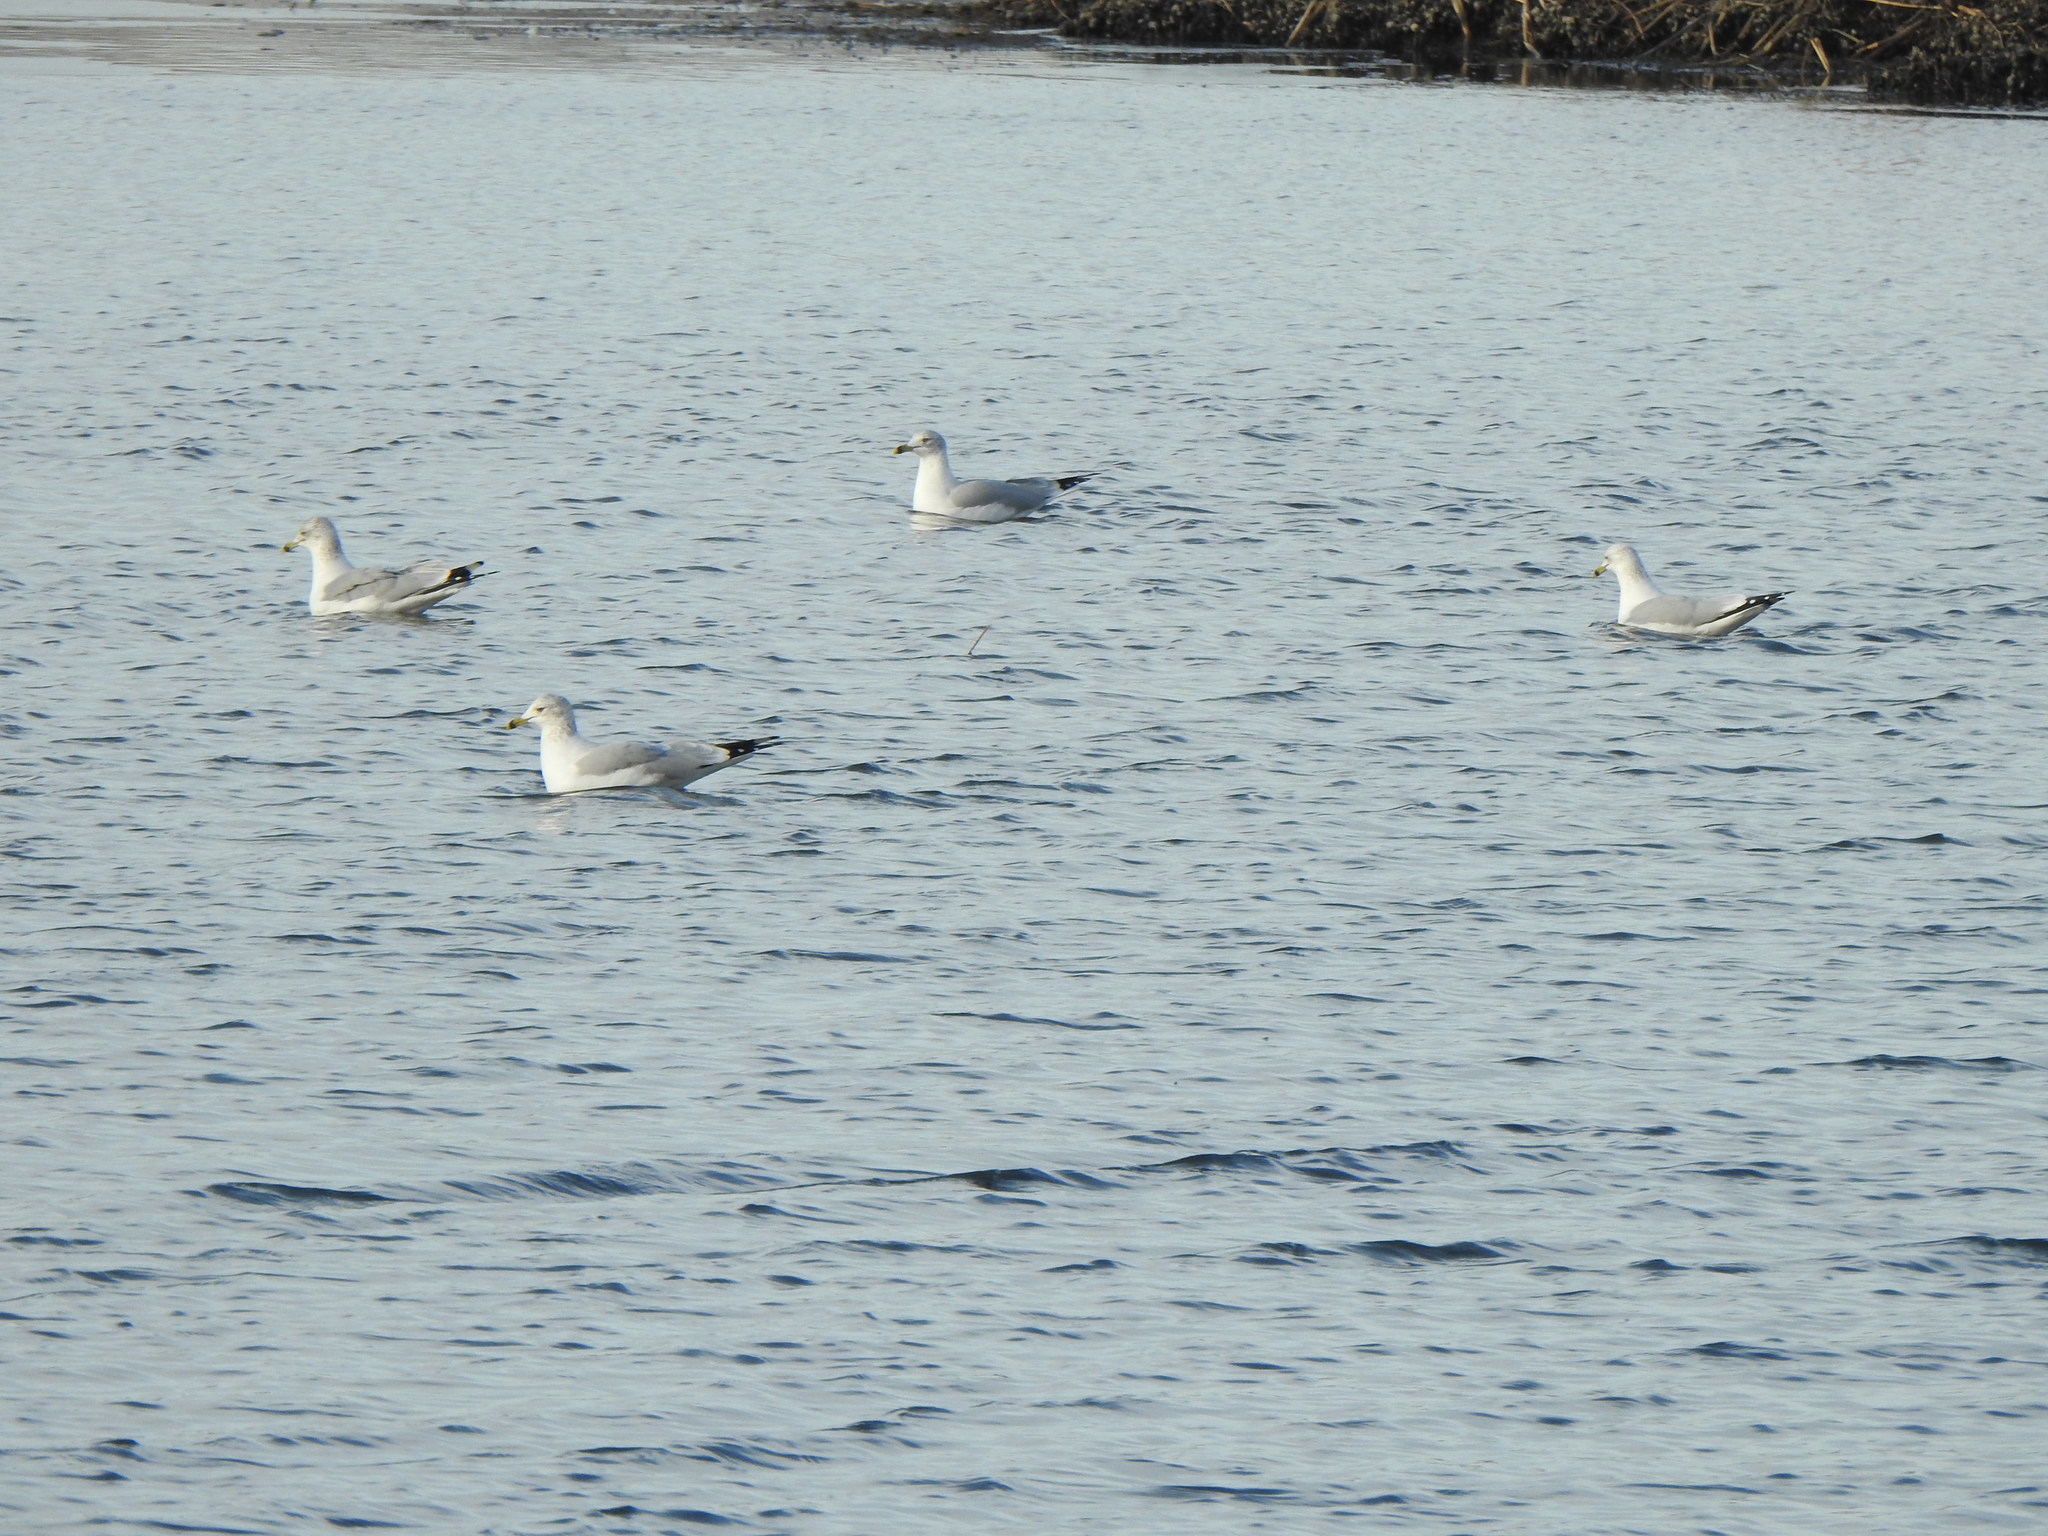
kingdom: Animalia
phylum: Chordata
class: Aves
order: Charadriiformes
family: Laridae
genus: Larus
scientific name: Larus delawarensis
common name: Ring-billed gull
